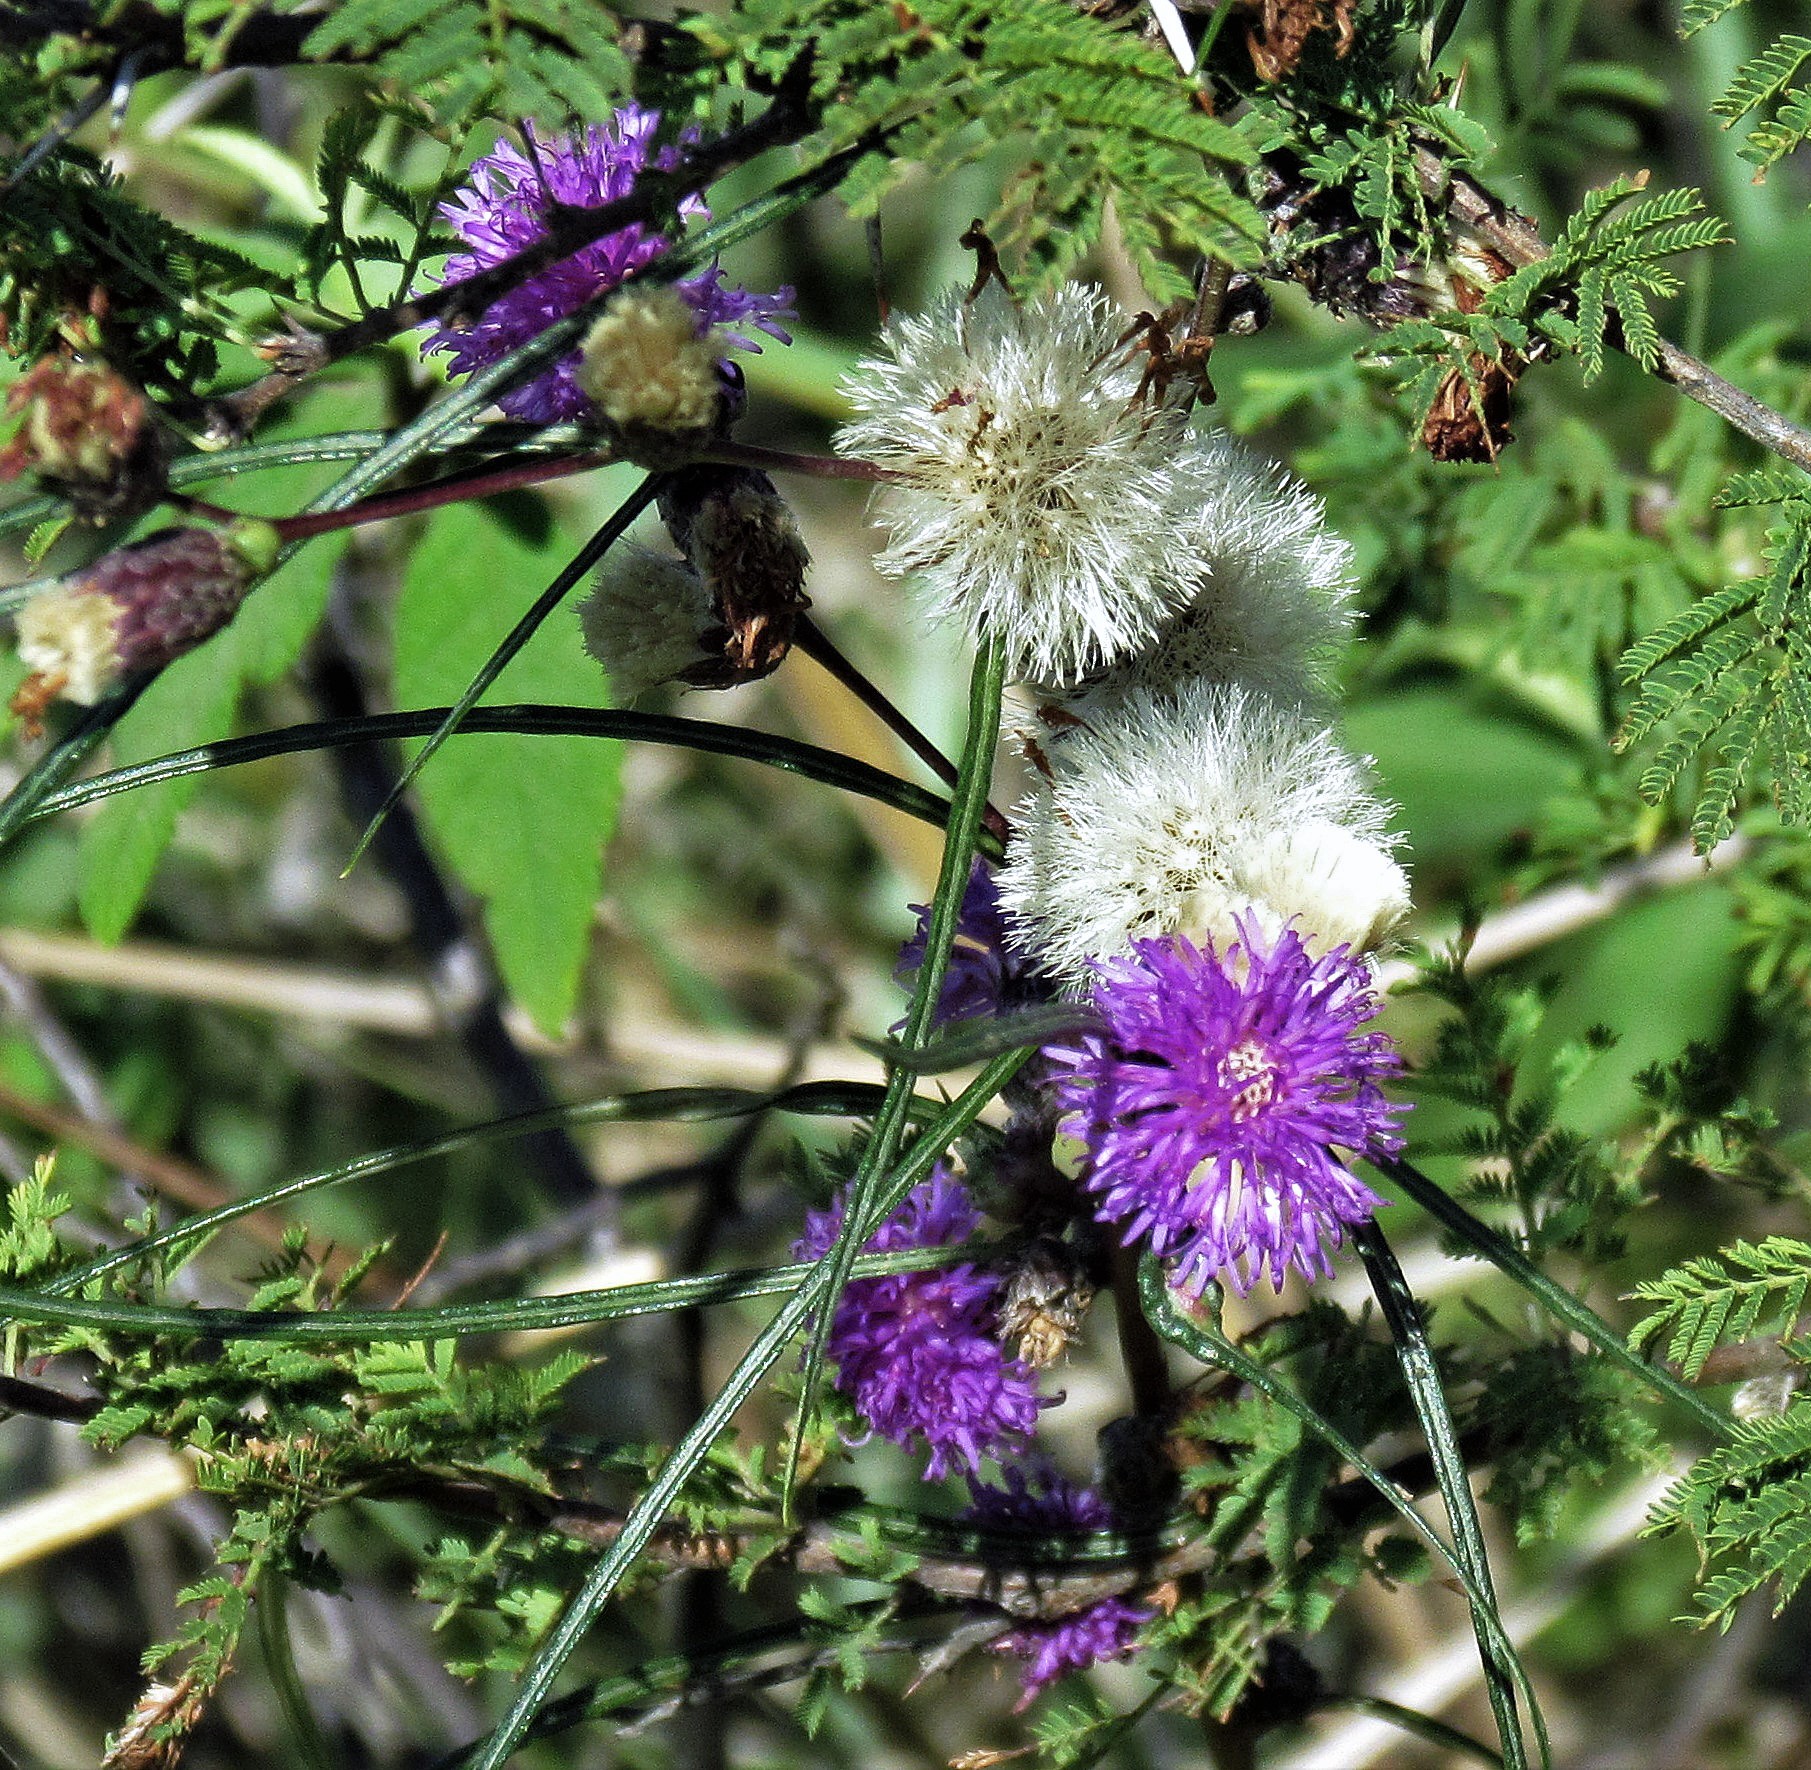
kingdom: Plantae
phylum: Tracheophyta
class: Magnoliopsida
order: Asterales
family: Asteraceae
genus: Lessingianthus
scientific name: Lessingianthus rubricaulis
